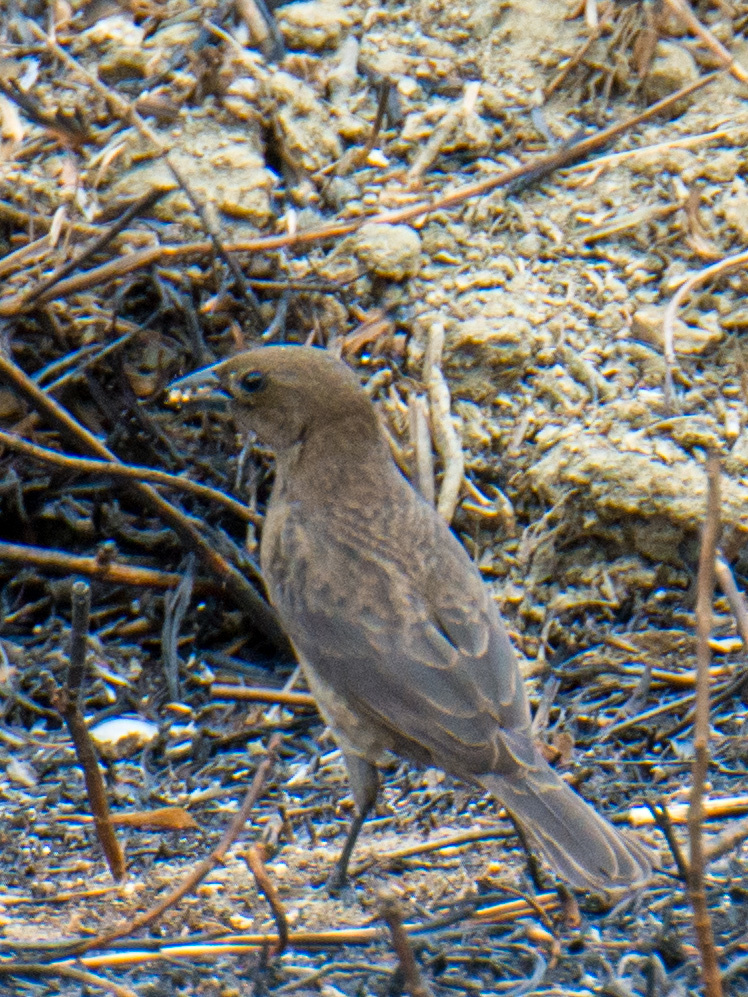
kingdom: Animalia
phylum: Chordata
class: Aves
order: Passeriformes
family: Icteridae
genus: Molothrus
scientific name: Molothrus bonariensis
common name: Shiny cowbird
